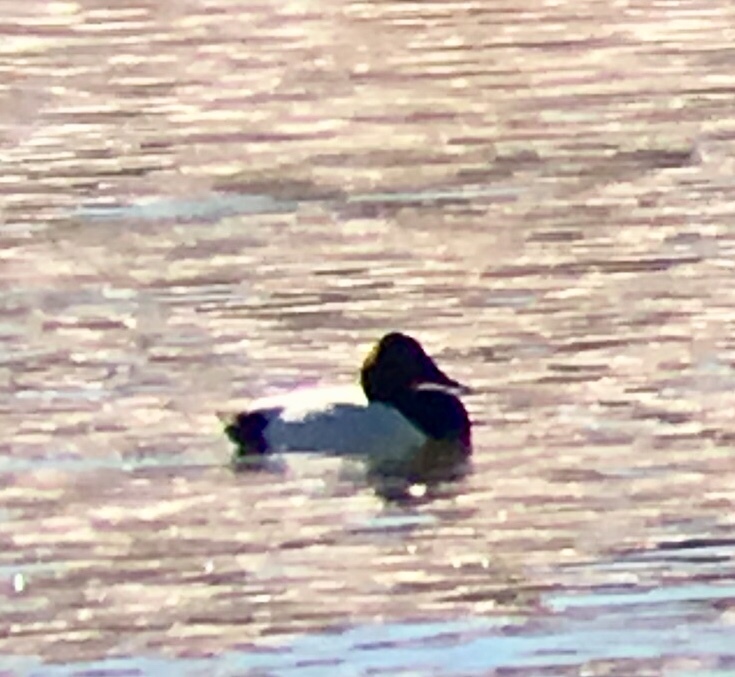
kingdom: Animalia
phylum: Chordata
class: Aves
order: Anseriformes
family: Anatidae
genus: Aythya
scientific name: Aythya valisineria
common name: Canvasback
